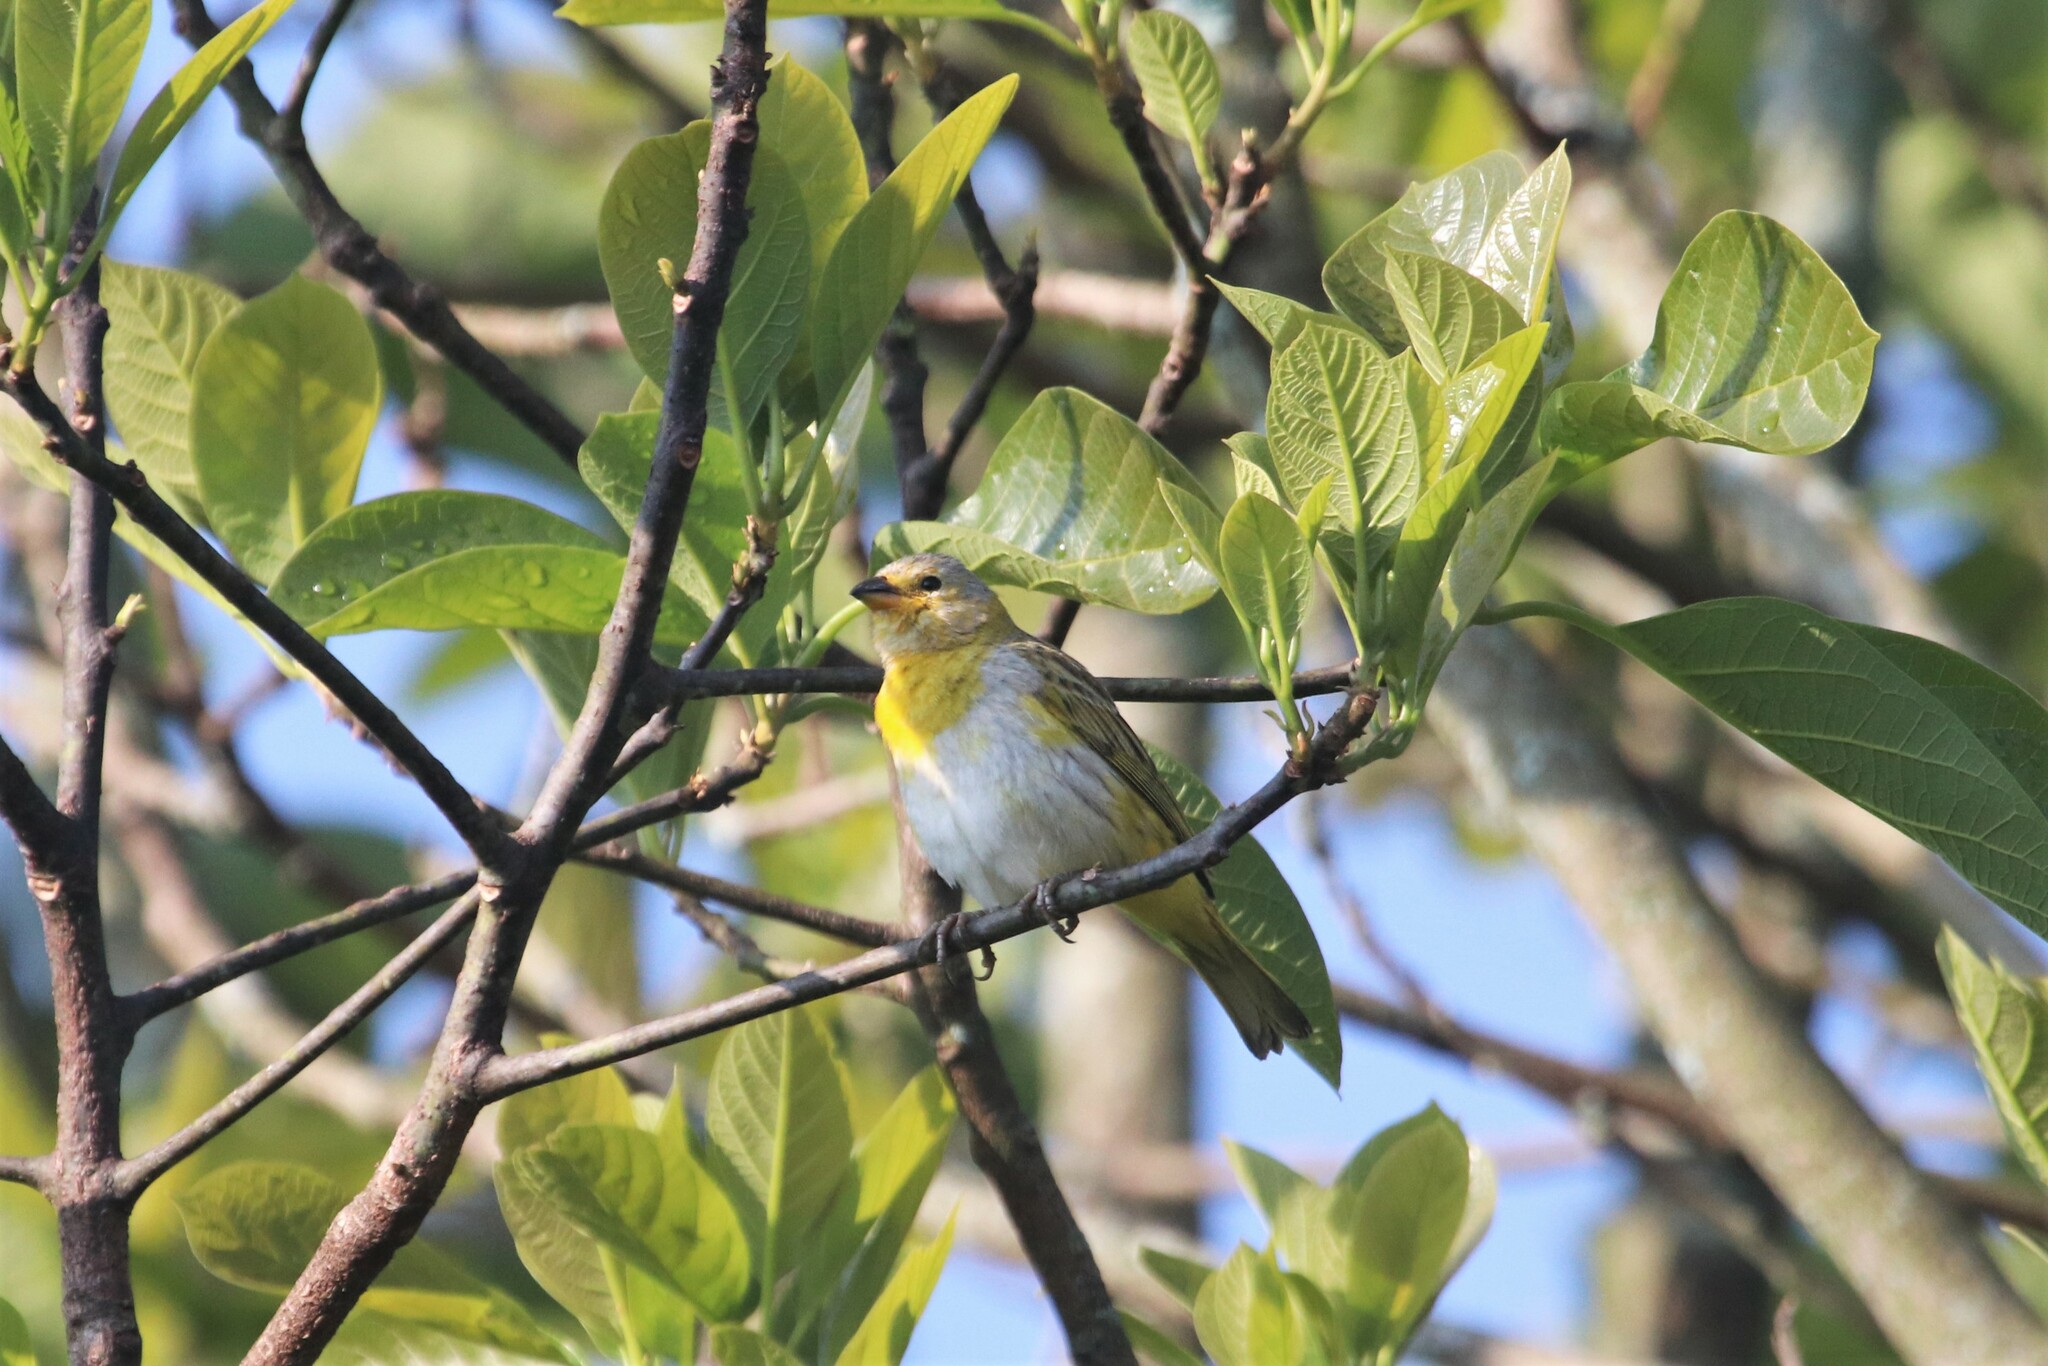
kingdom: Animalia
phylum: Chordata
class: Aves
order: Passeriformes
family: Thraupidae
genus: Sicalis
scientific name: Sicalis flaveola
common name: Saffron finch
